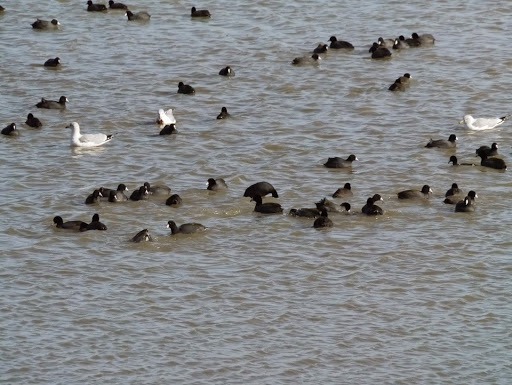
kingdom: Animalia
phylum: Chordata
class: Aves
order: Gruiformes
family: Rallidae
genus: Fulica
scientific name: Fulica americana
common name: American coot
